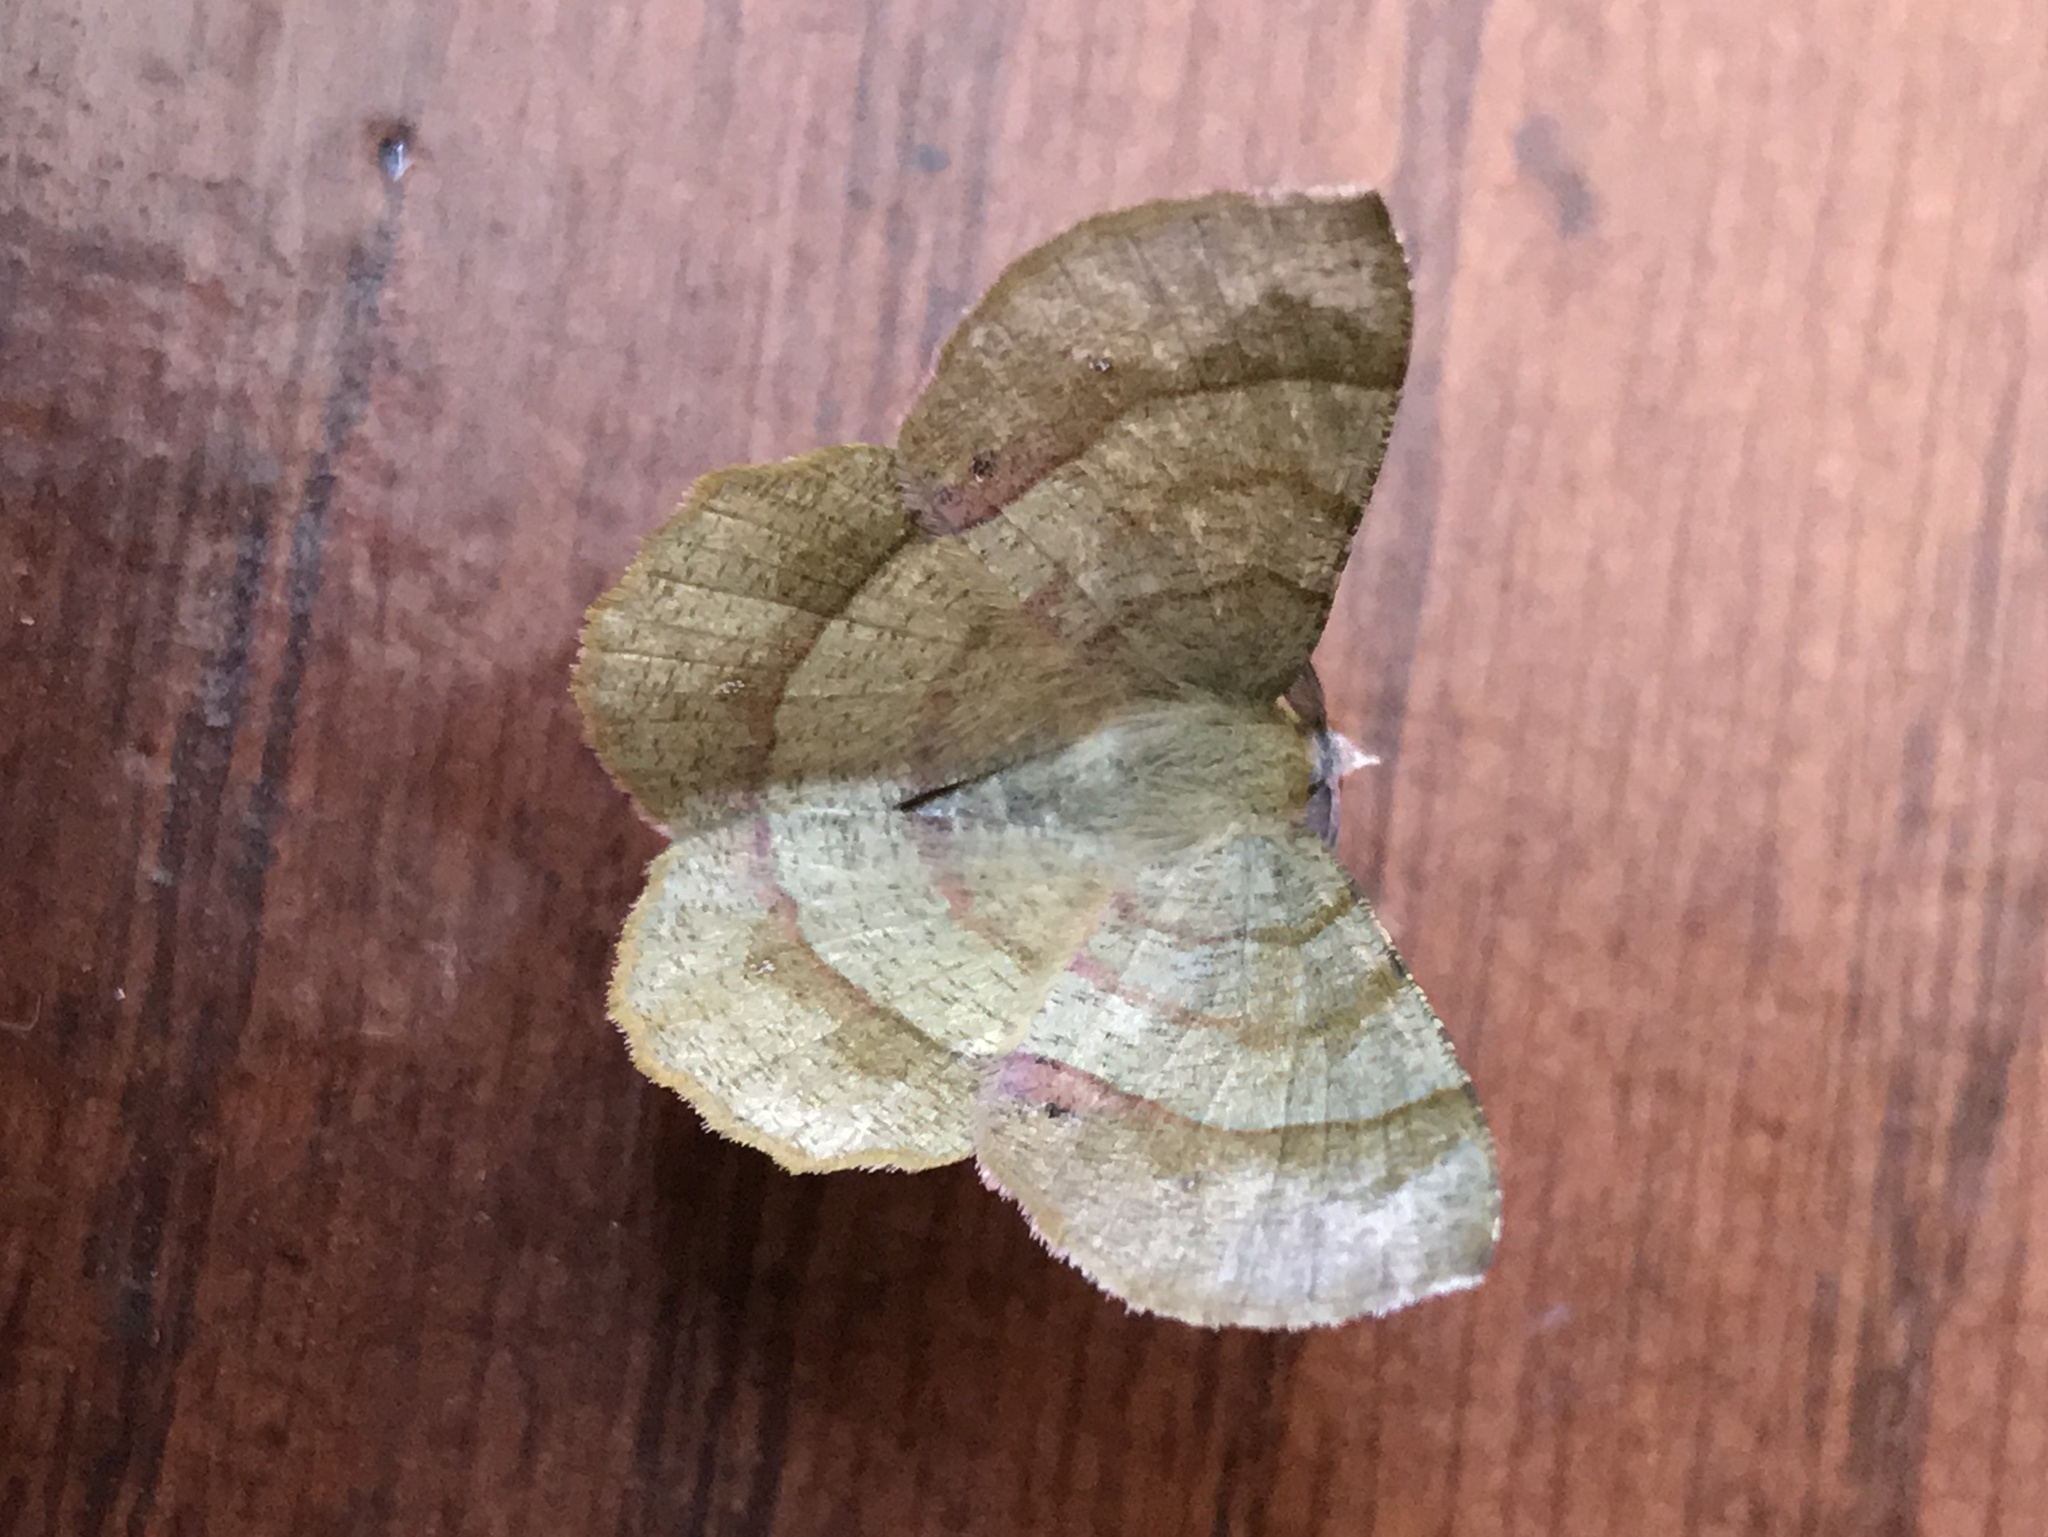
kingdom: Animalia
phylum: Arthropoda
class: Insecta
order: Lepidoptera
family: Geometridae
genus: Erastria
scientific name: Erastria decrepitaria
